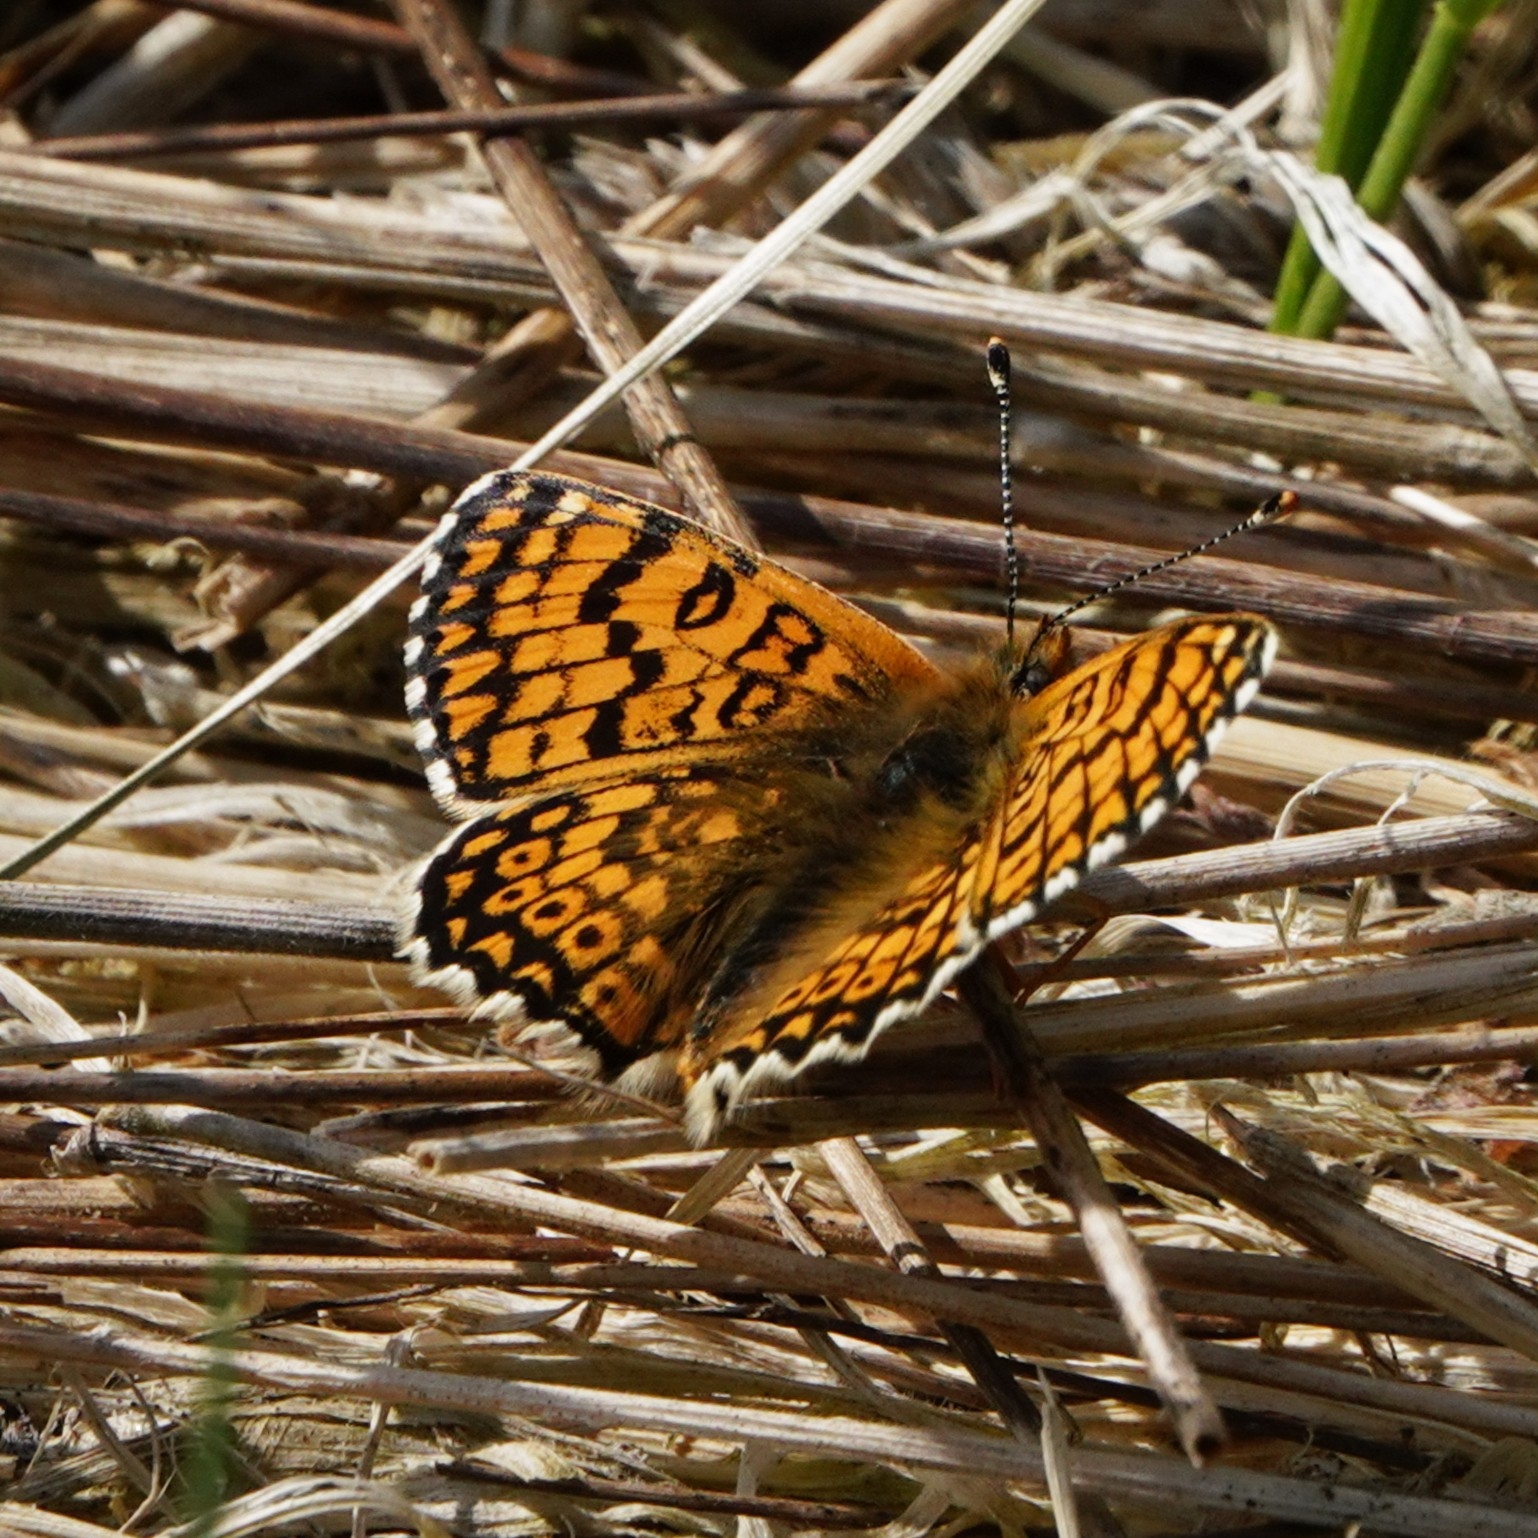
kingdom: Animalia
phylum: Arthropoda
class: Insecta
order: Lepidoptera
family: Nymphalidae
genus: Melitaea
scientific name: Melitaea cinxia
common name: Glanville fritillary
